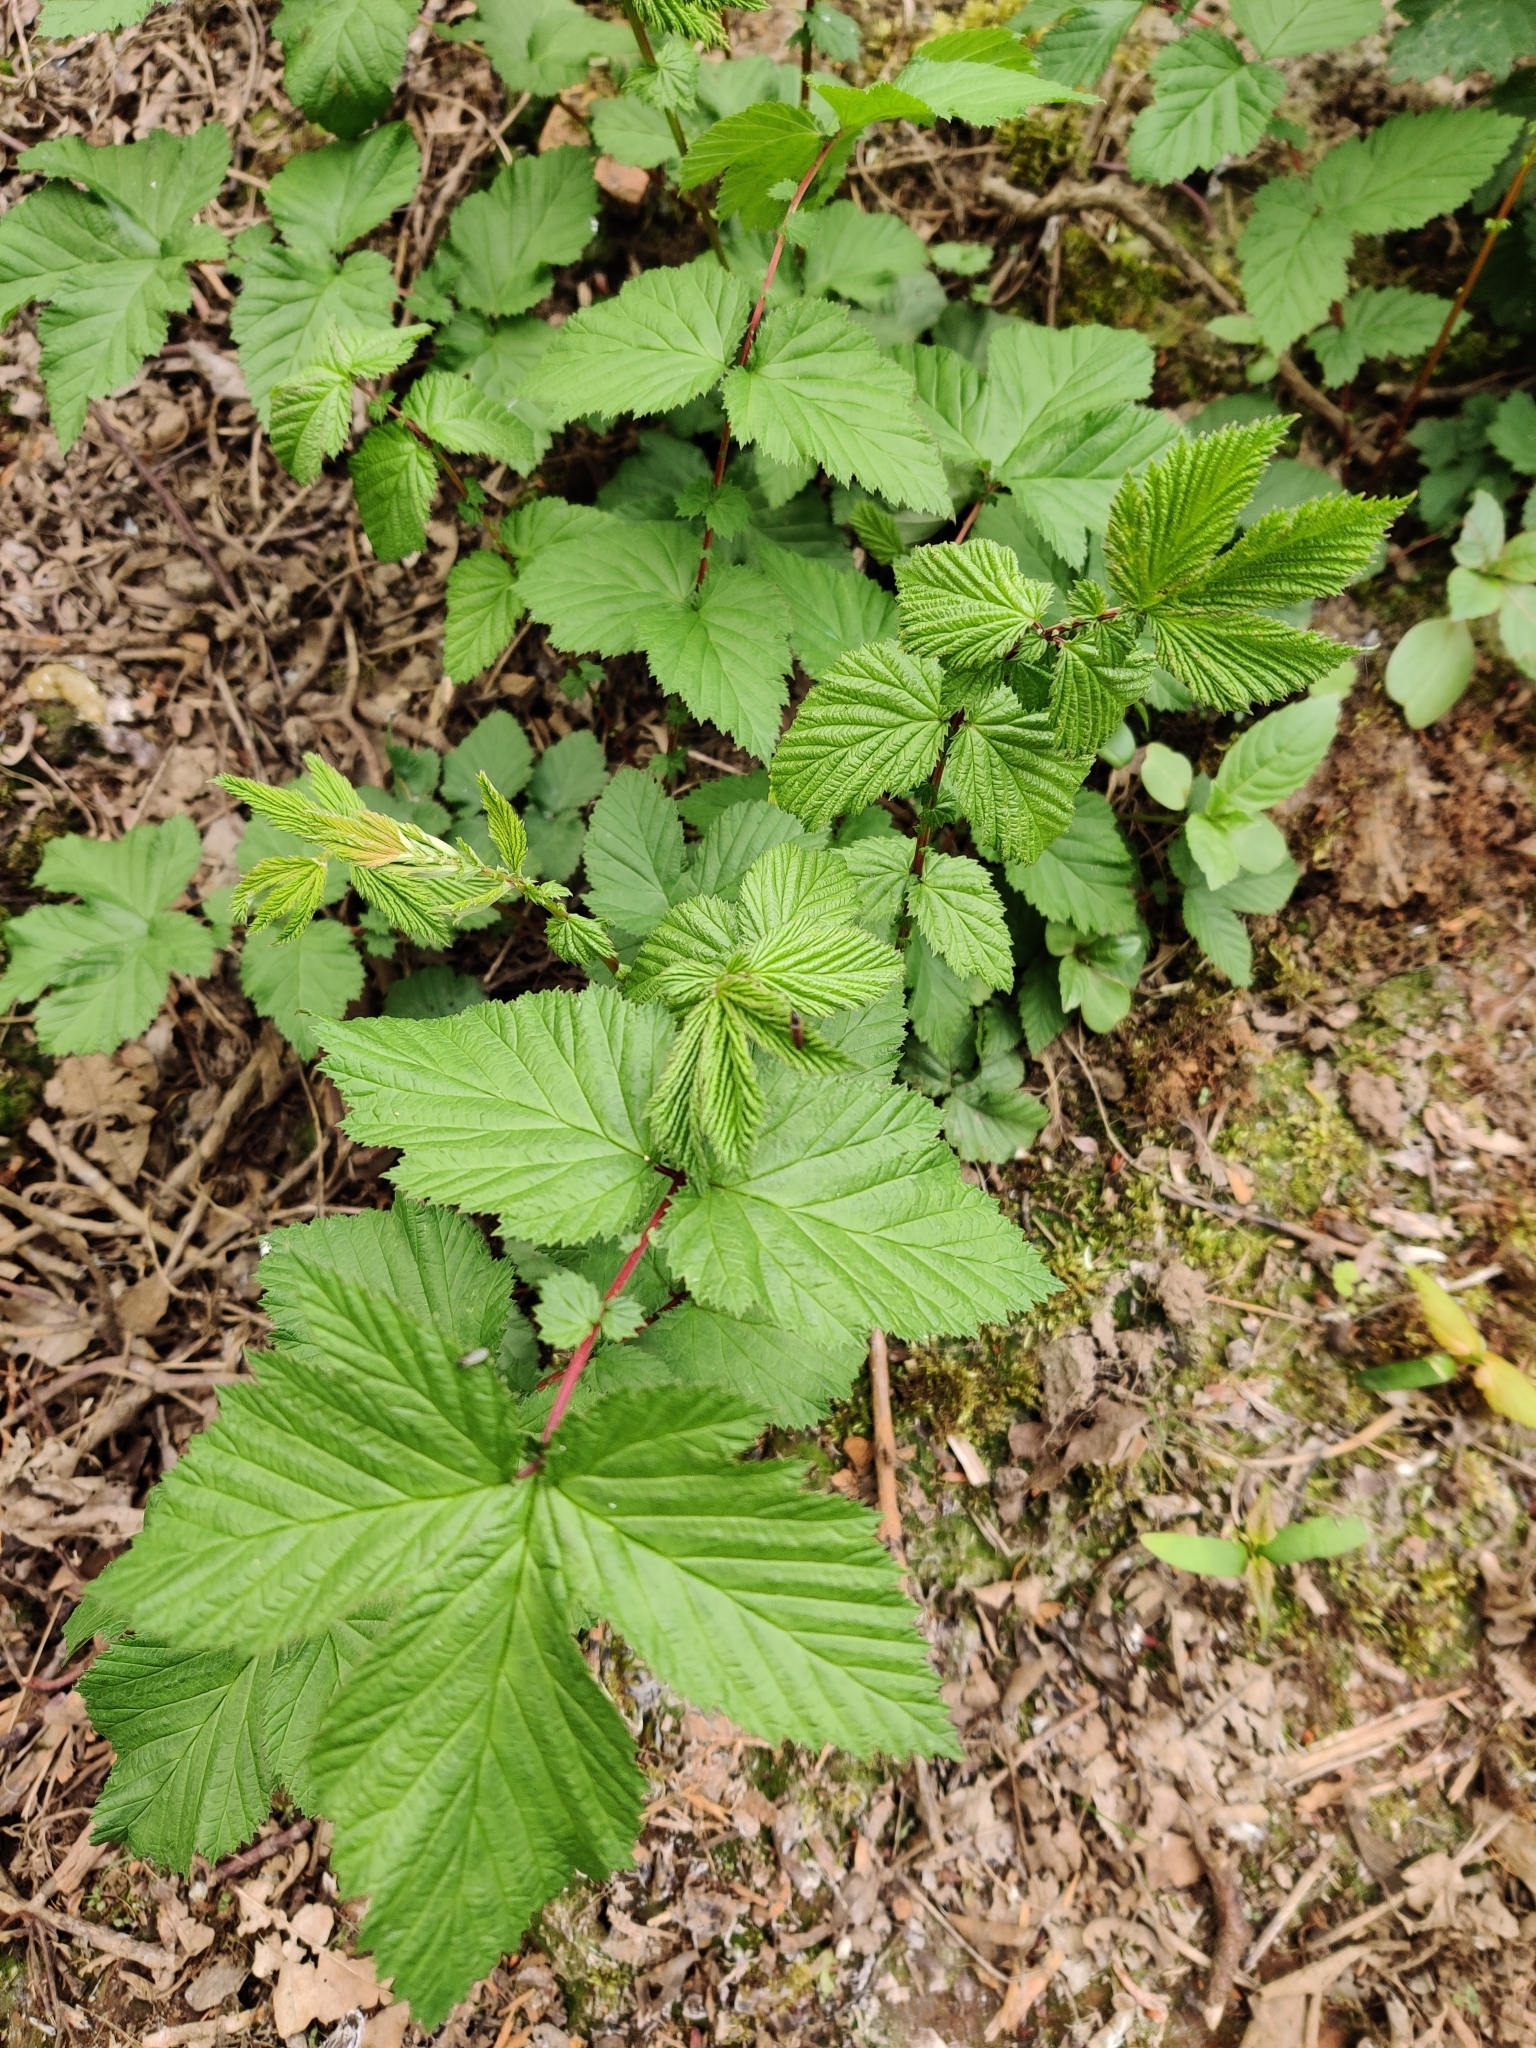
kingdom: Plantae
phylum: Tracheophyta
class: Magnoliopsida
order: Rosales
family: Rosaceae
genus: Filipendula
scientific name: Filipendula ulmaria
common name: Meadowsweet
